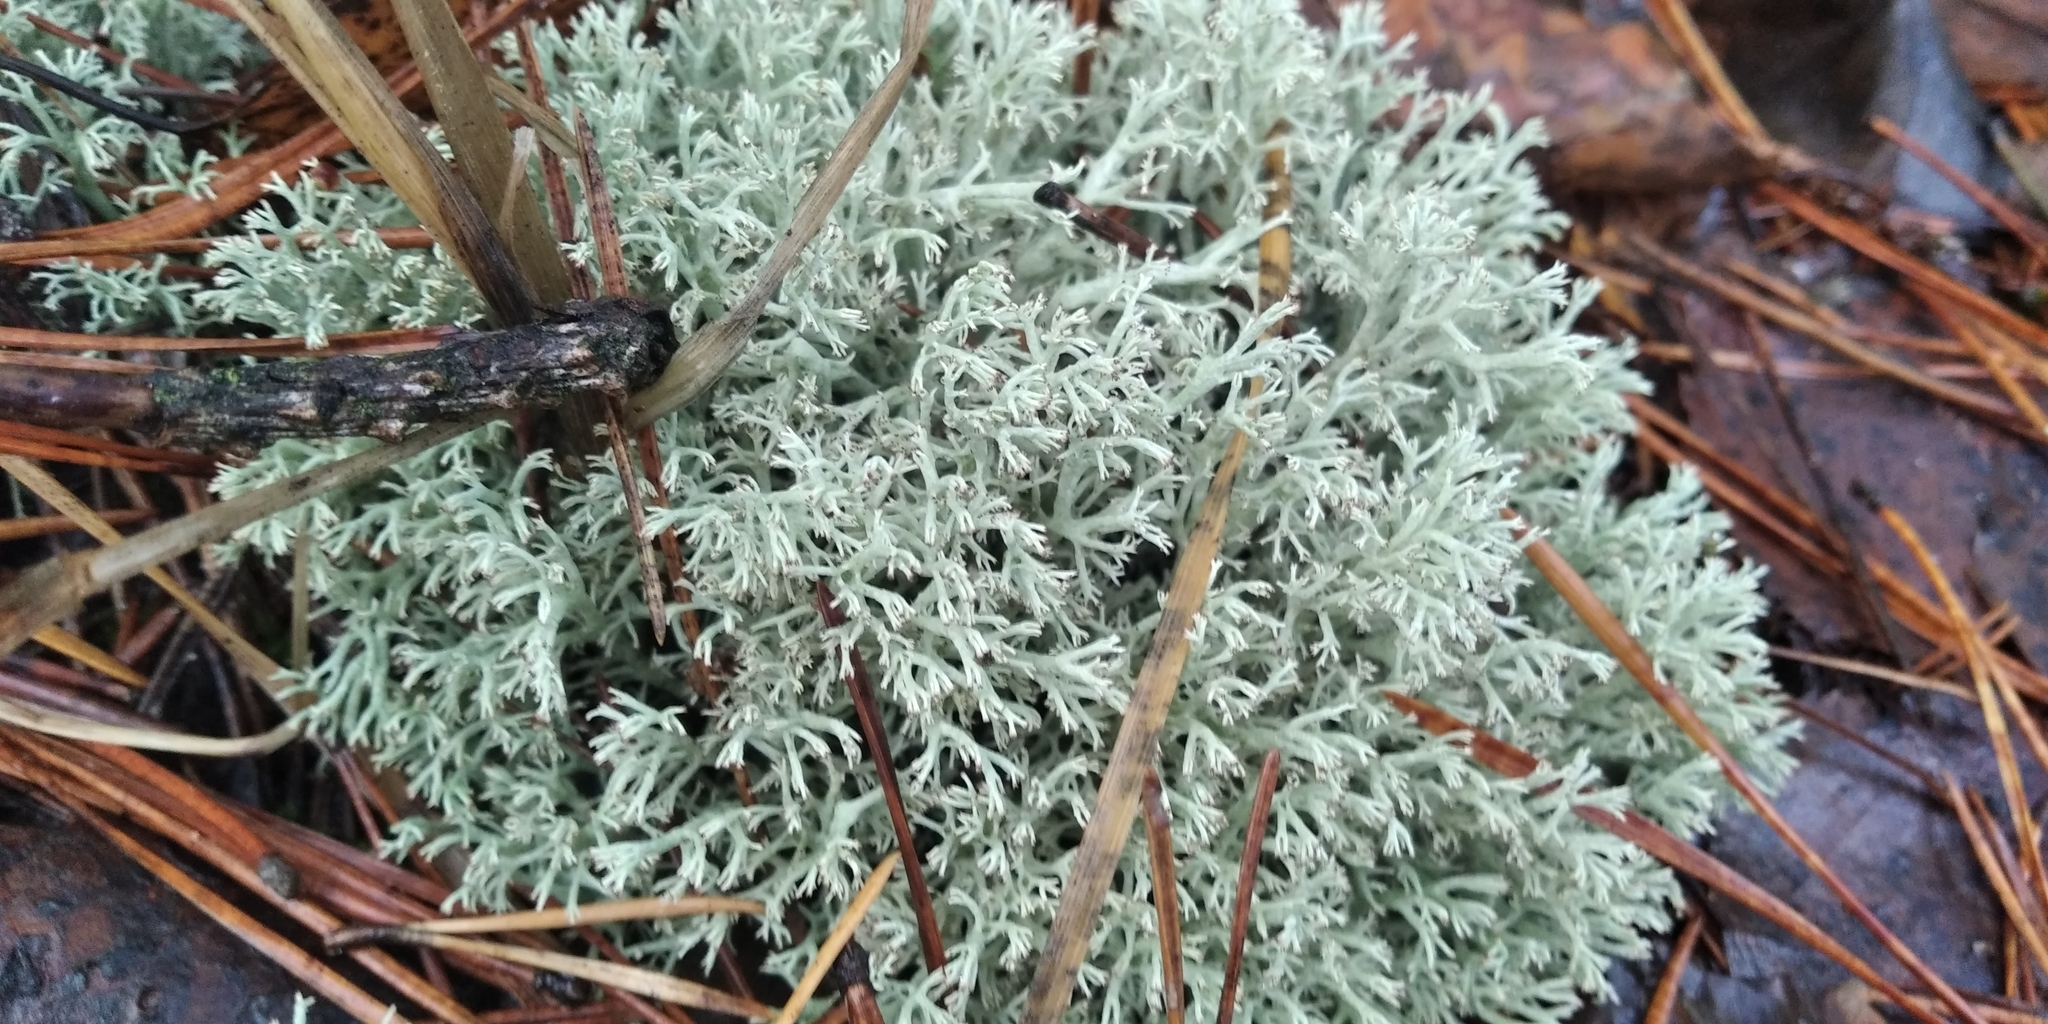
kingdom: Fungi
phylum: Ascomycota
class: Lecanoromycetes
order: Lecanorales
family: Cladoniaceae
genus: Cladonia
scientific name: Cladonia arbuscula
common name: Reindeer lichen
